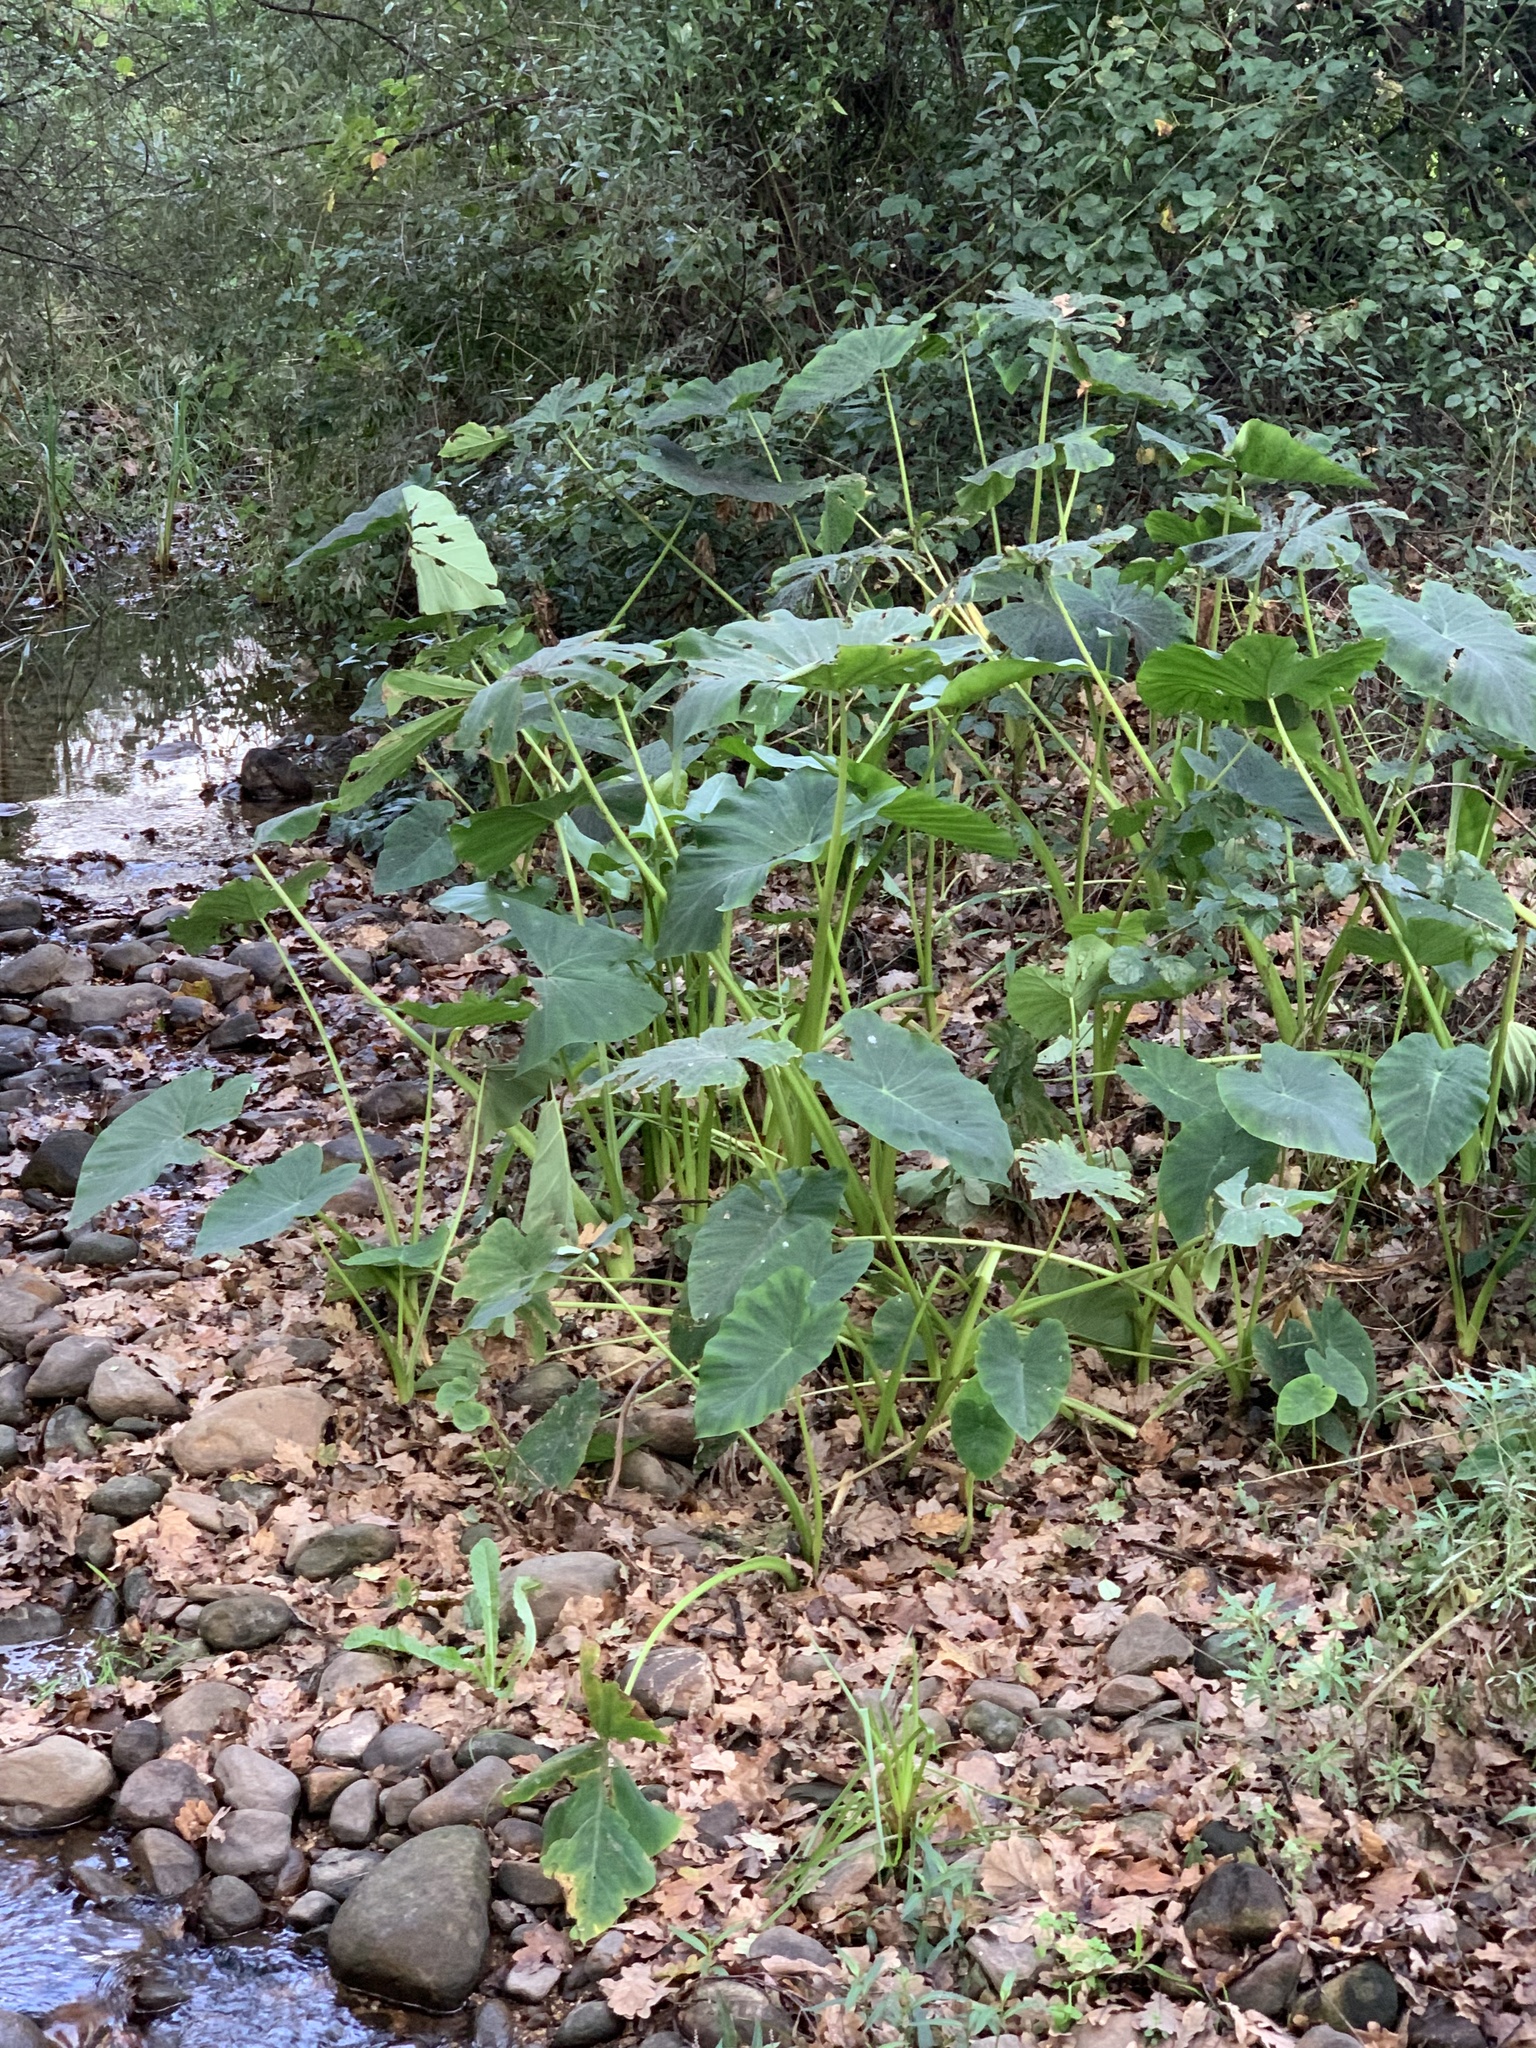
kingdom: Plantae
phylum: Tracheophyta
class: Liliopsida
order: Alismatales
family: Araceae
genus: Colocasia
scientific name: Colocasia esculenta
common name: Taro
